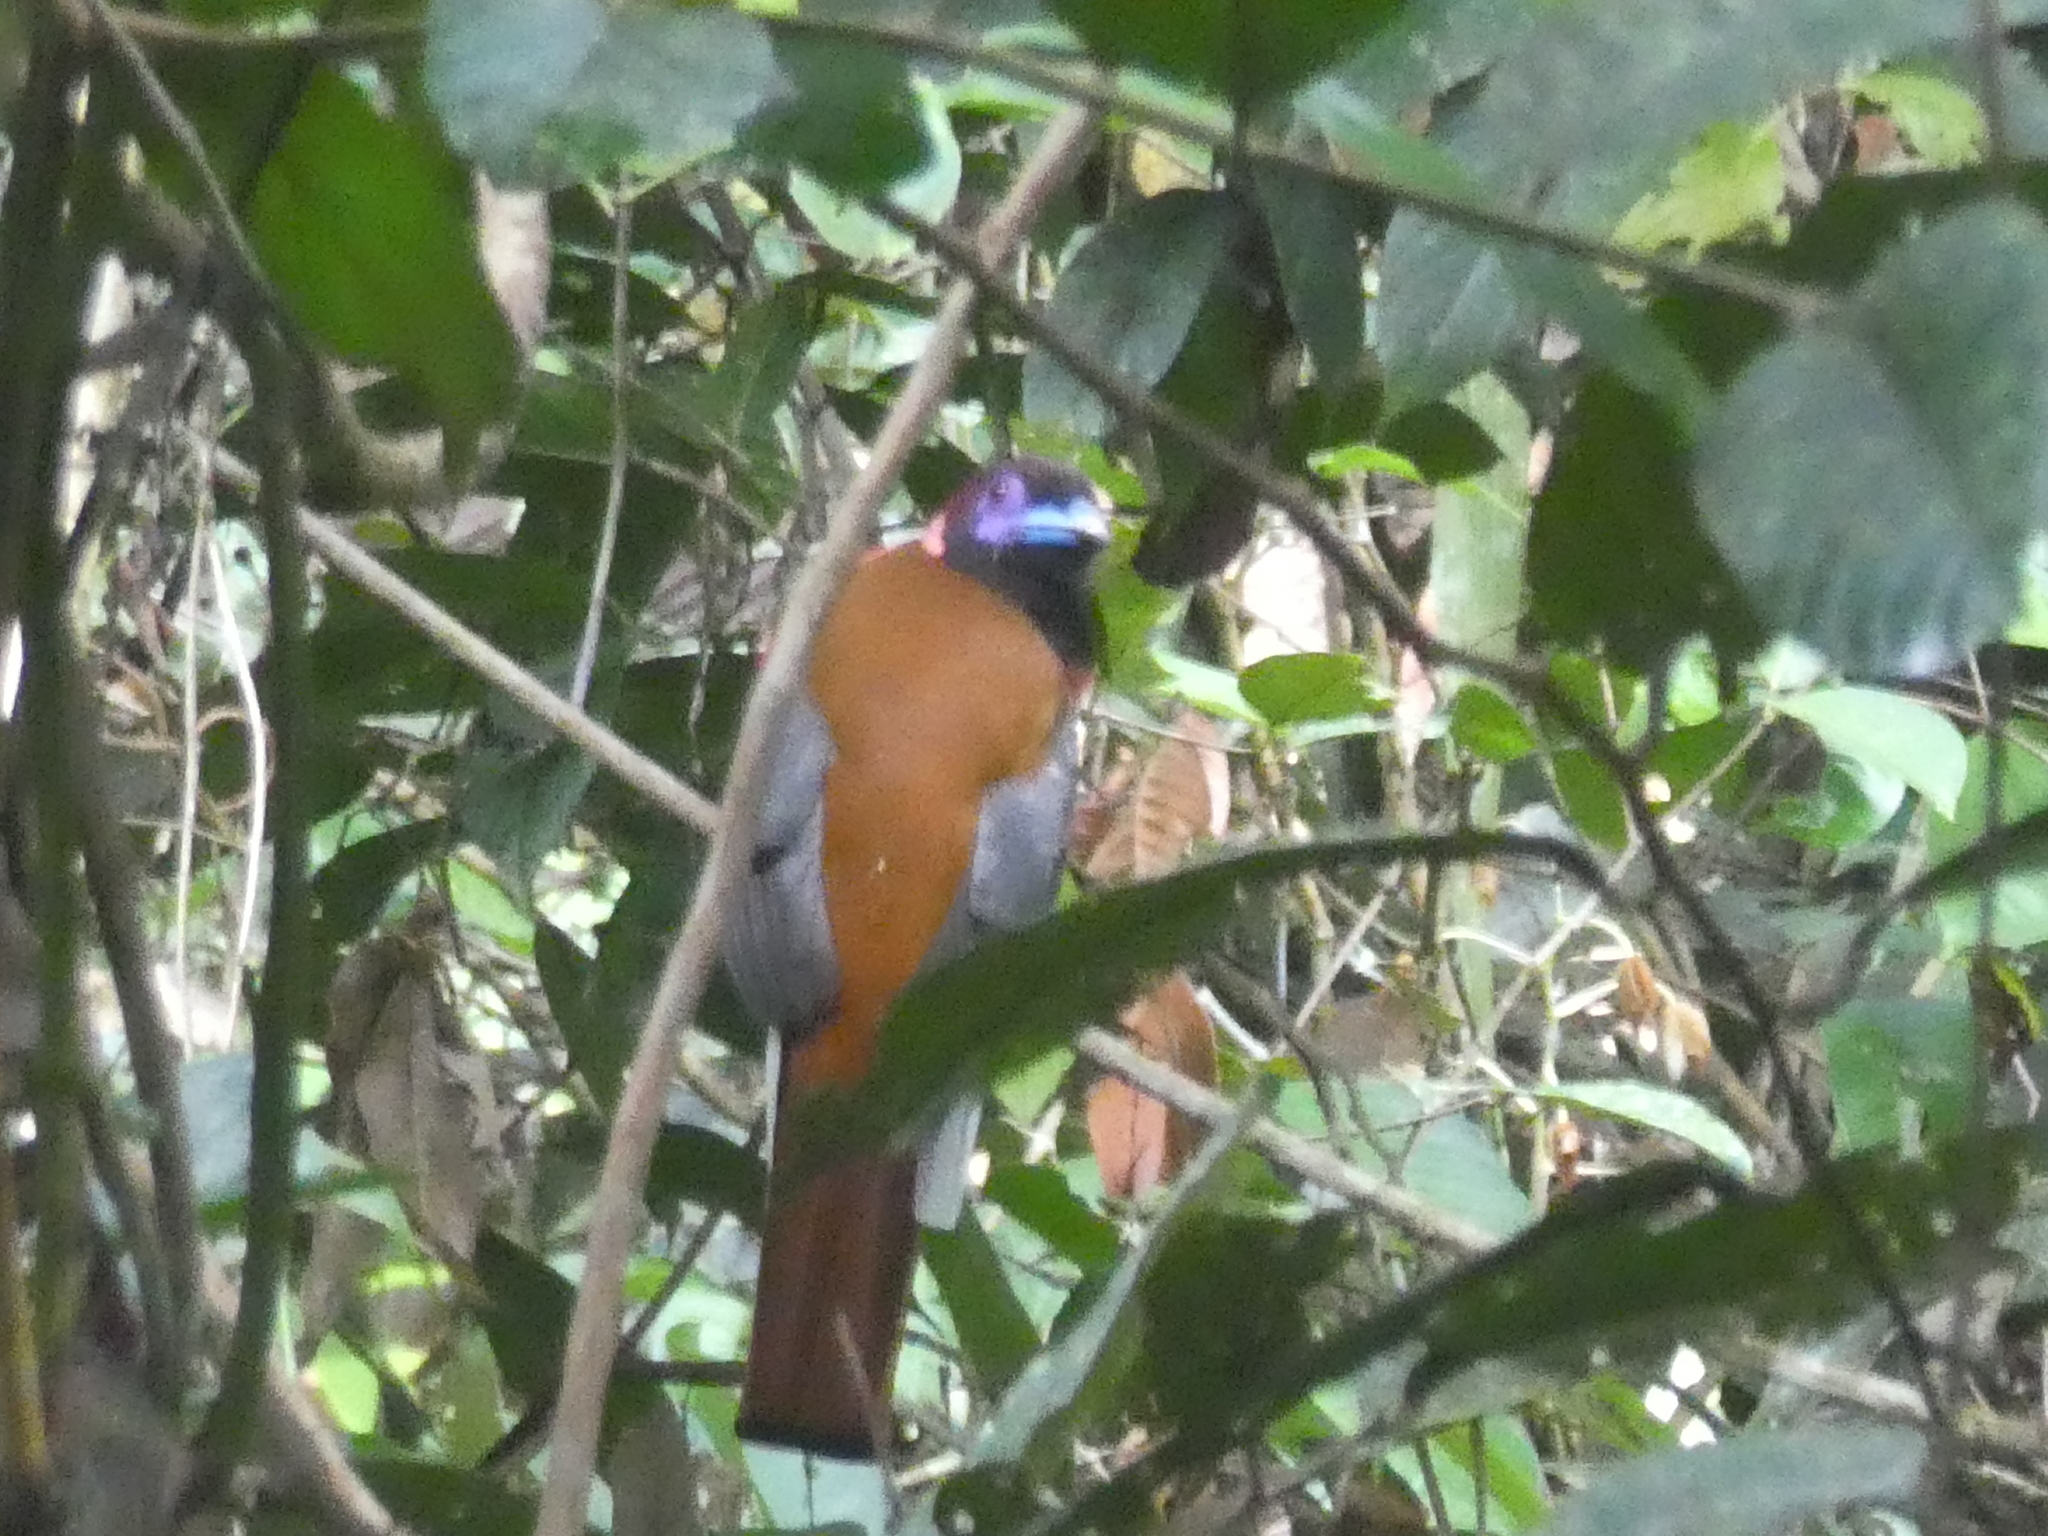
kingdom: Animalia
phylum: Chordata
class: Aves
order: Trogoniformes
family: Trogonidae
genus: Harpactes
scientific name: Harpactes diardii
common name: Diard's trogon
